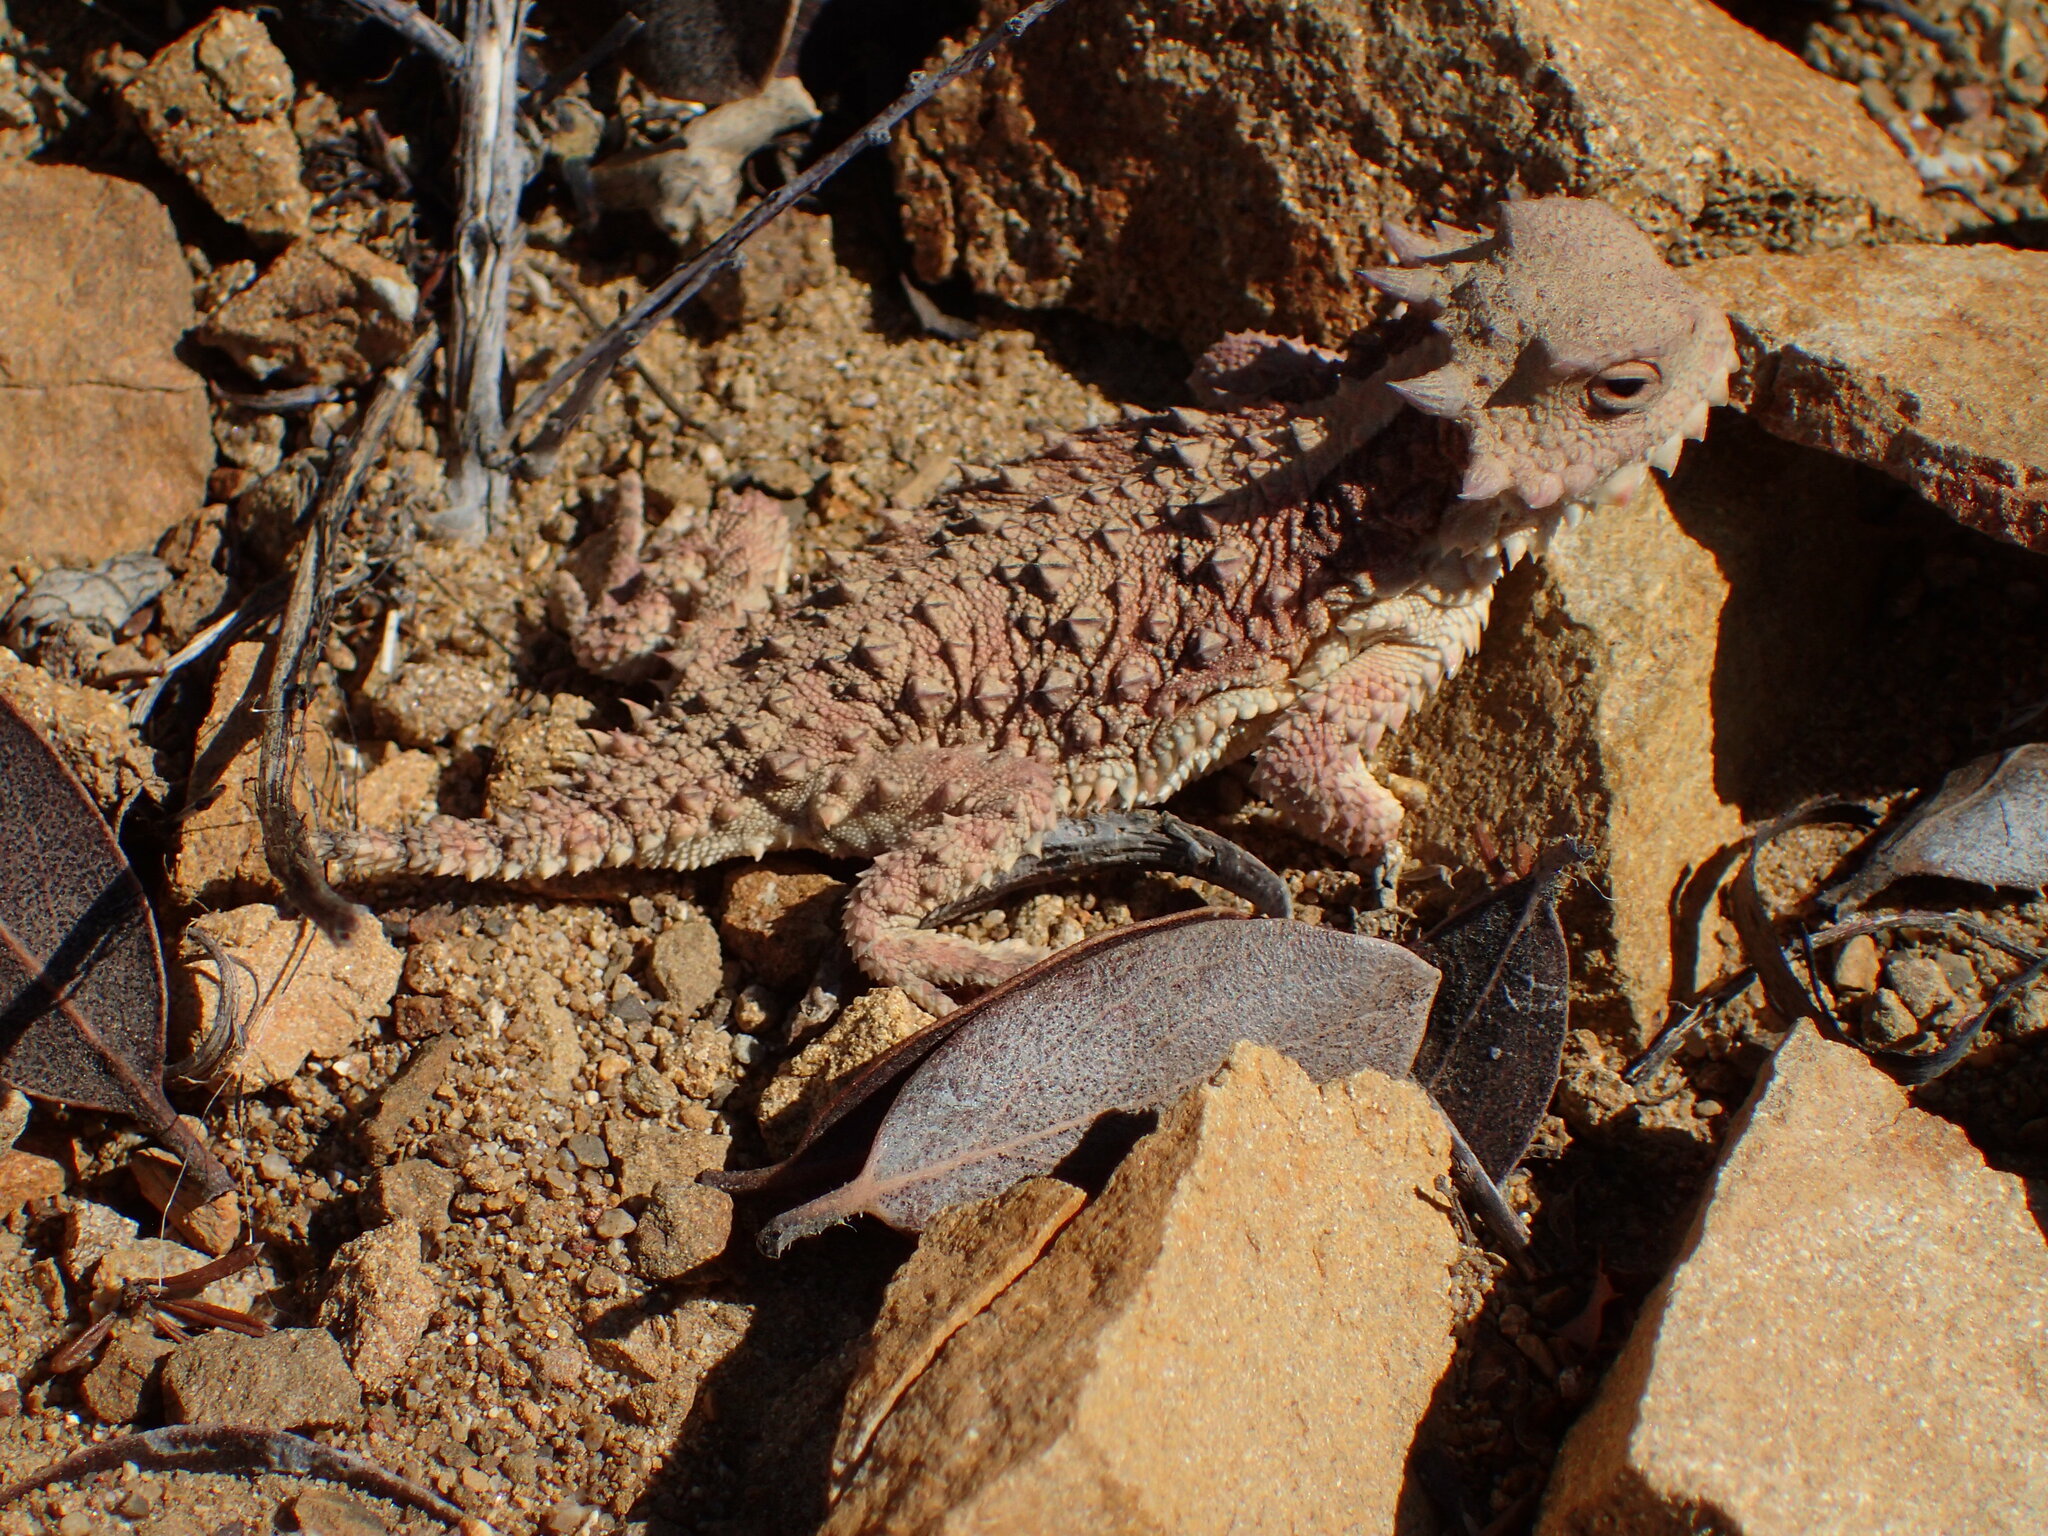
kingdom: Animalia
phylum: Chordata
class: Squamata
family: Phrynosomatidae
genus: Phrynosoma
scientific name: Phrynosoma blainvillii
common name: San diego horned lizard
